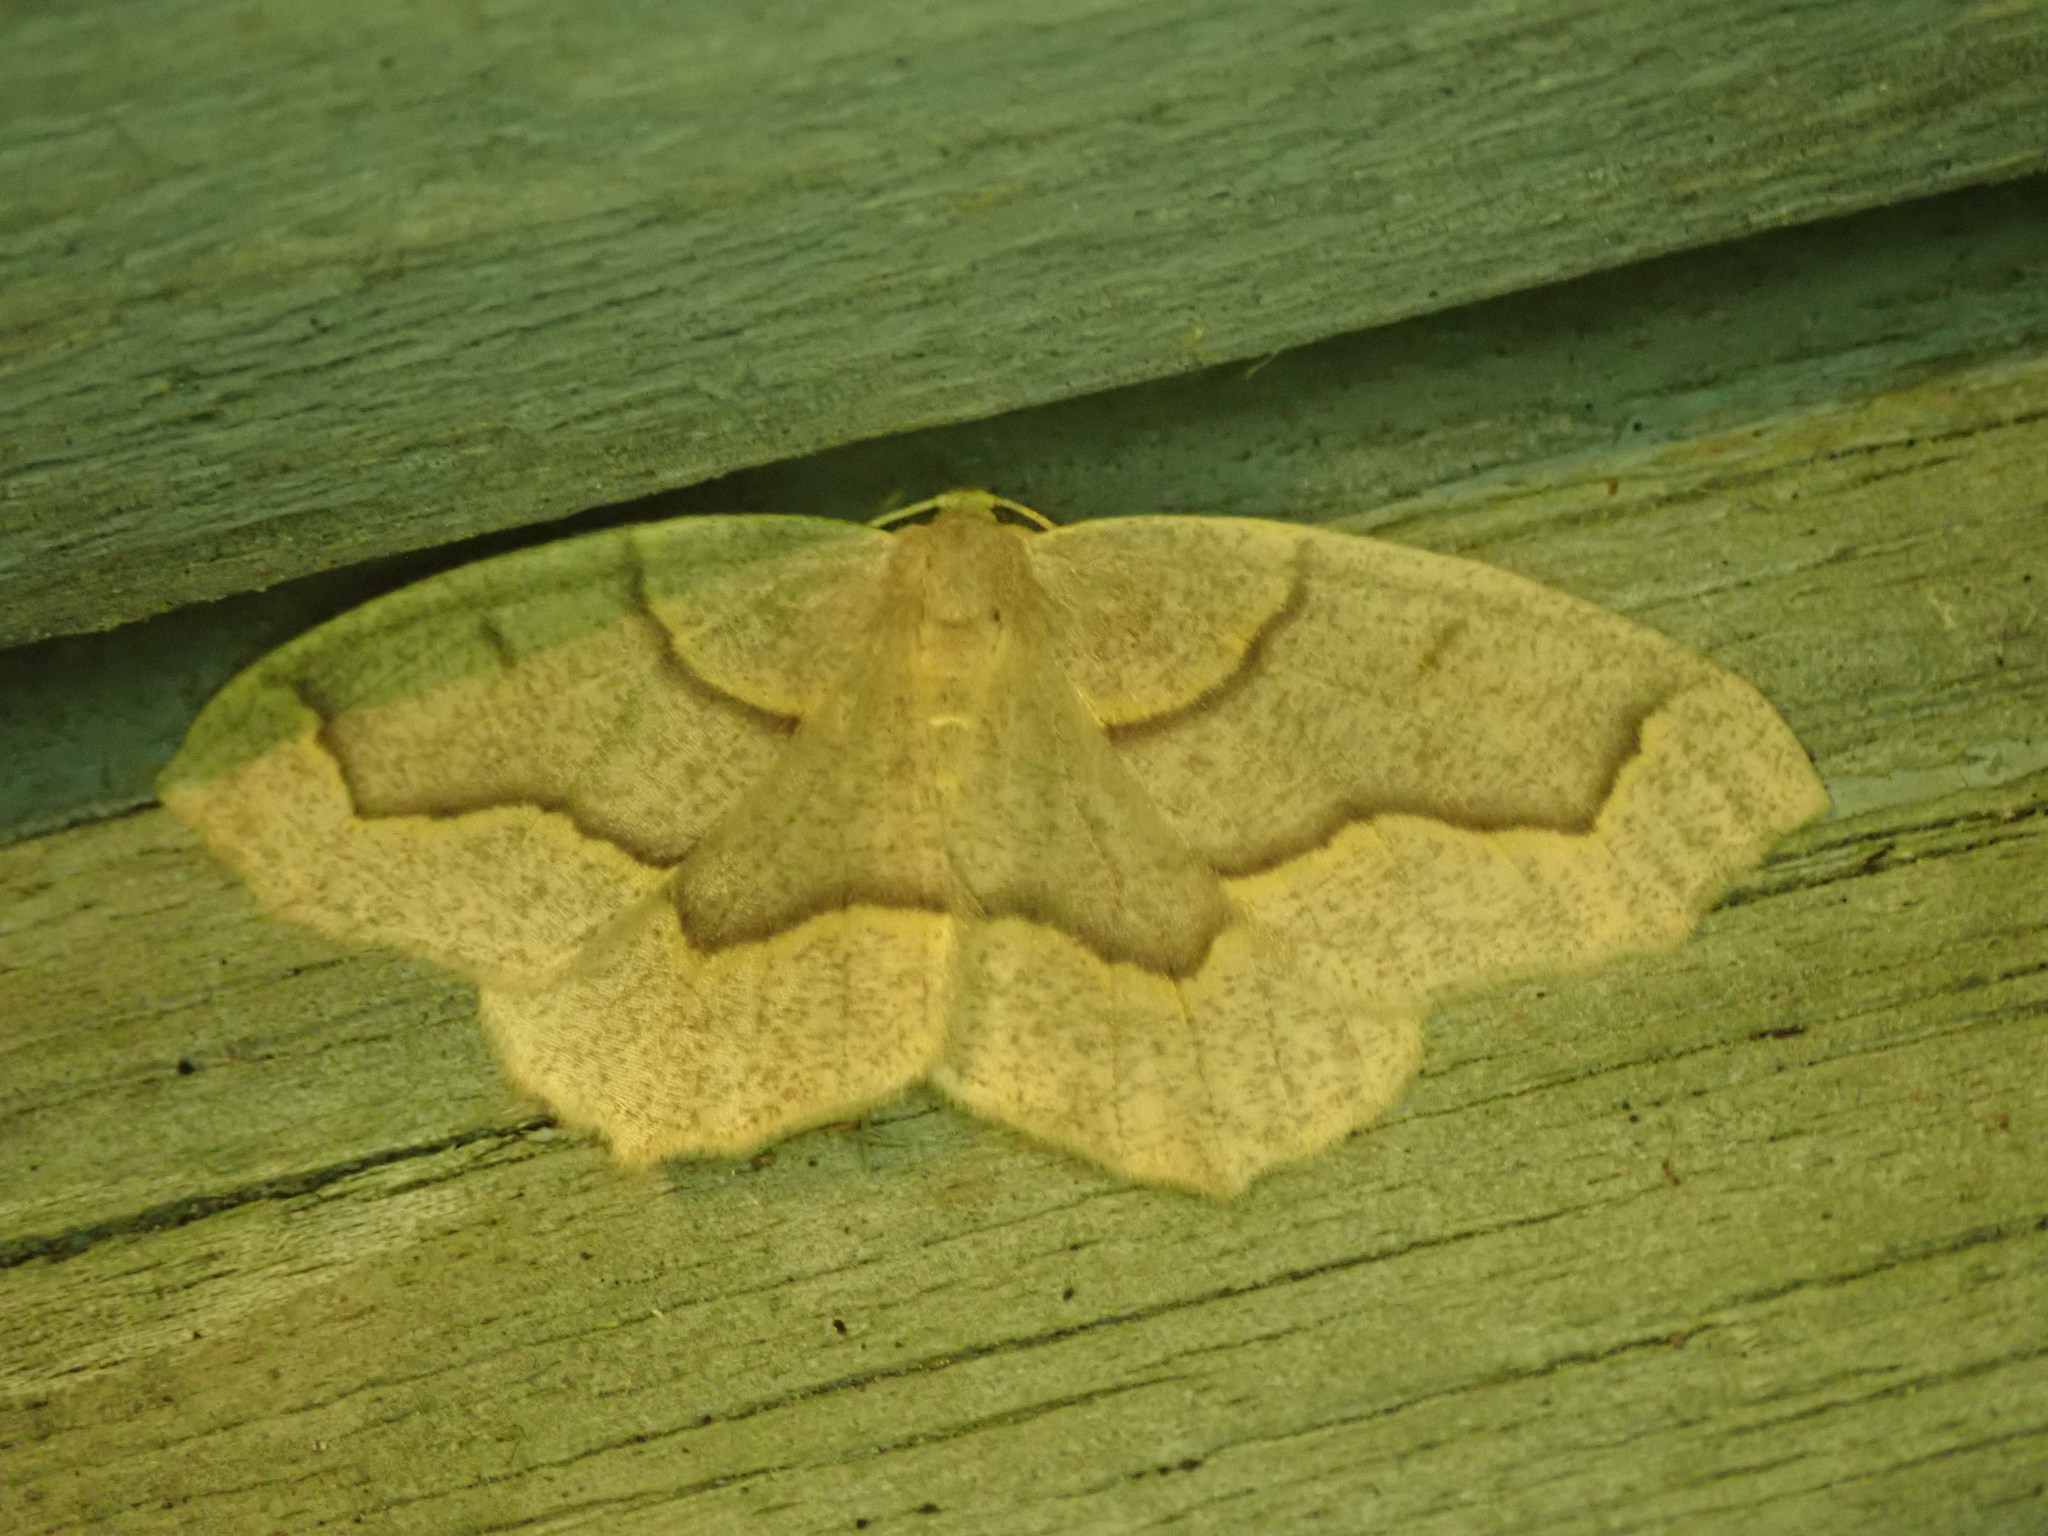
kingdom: Animalia
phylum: Arthropoda
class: Insecta
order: Lepidoptera
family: Geometridae
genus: Lambdina
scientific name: Lambdina fiscellaria
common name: Hemlock looper
